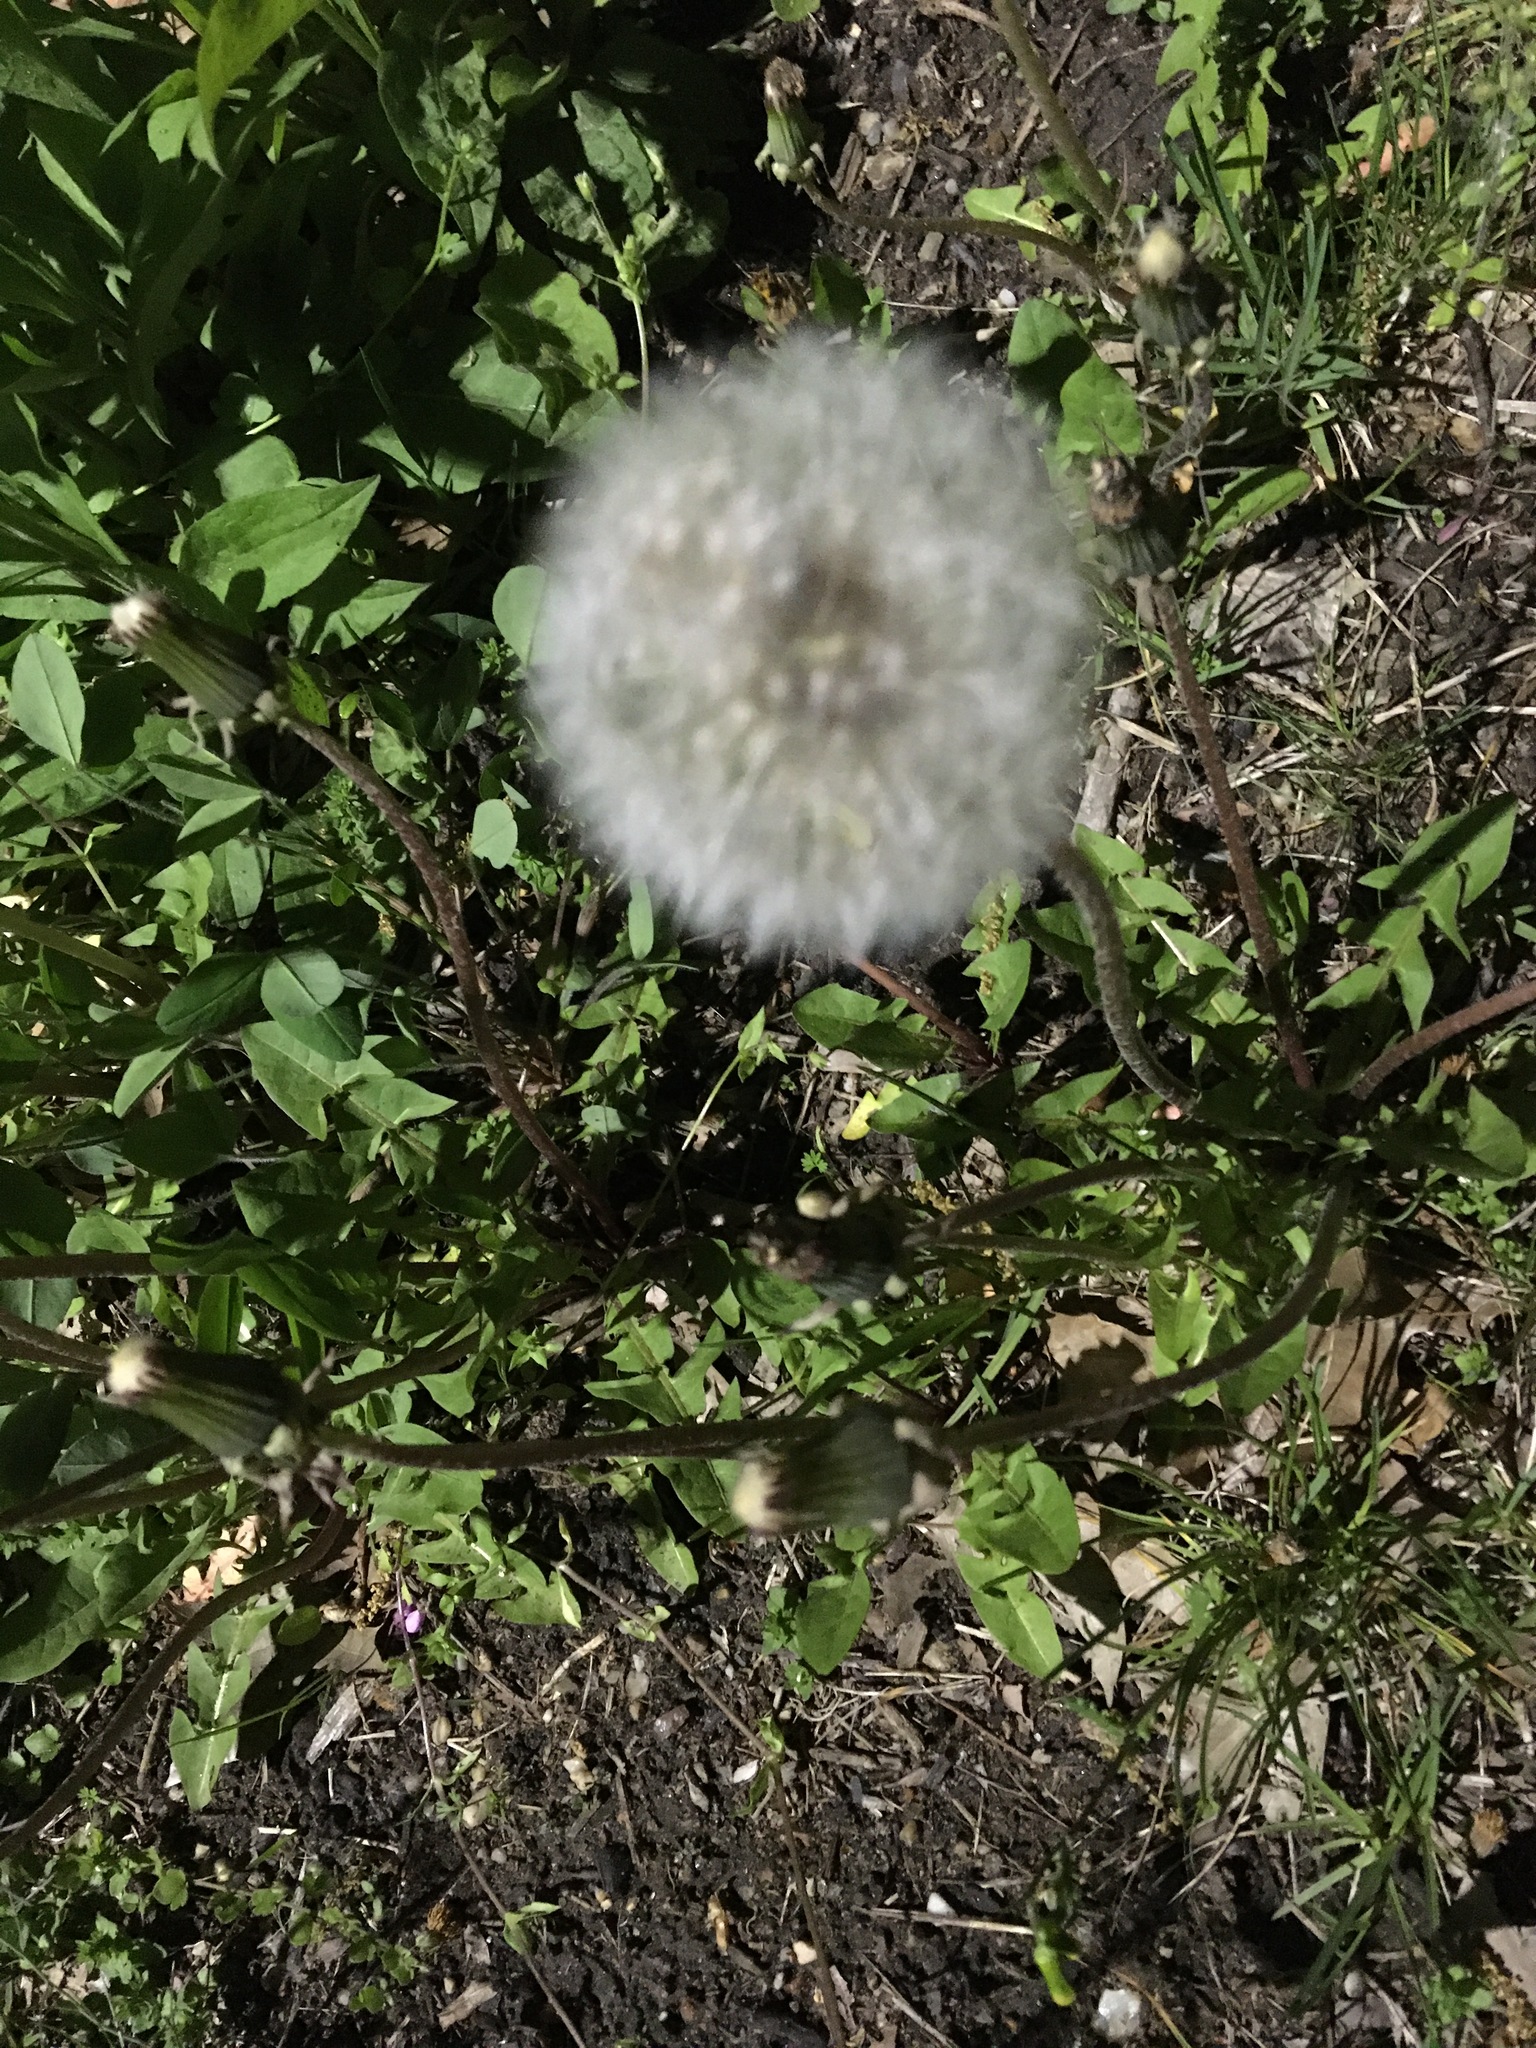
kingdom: Plantae
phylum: Tracheophyta
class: Magnoliopsida
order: Asterales
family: Asteraceae
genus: Taraxacum
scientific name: Taraxacum officinale
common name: Common dandelion
